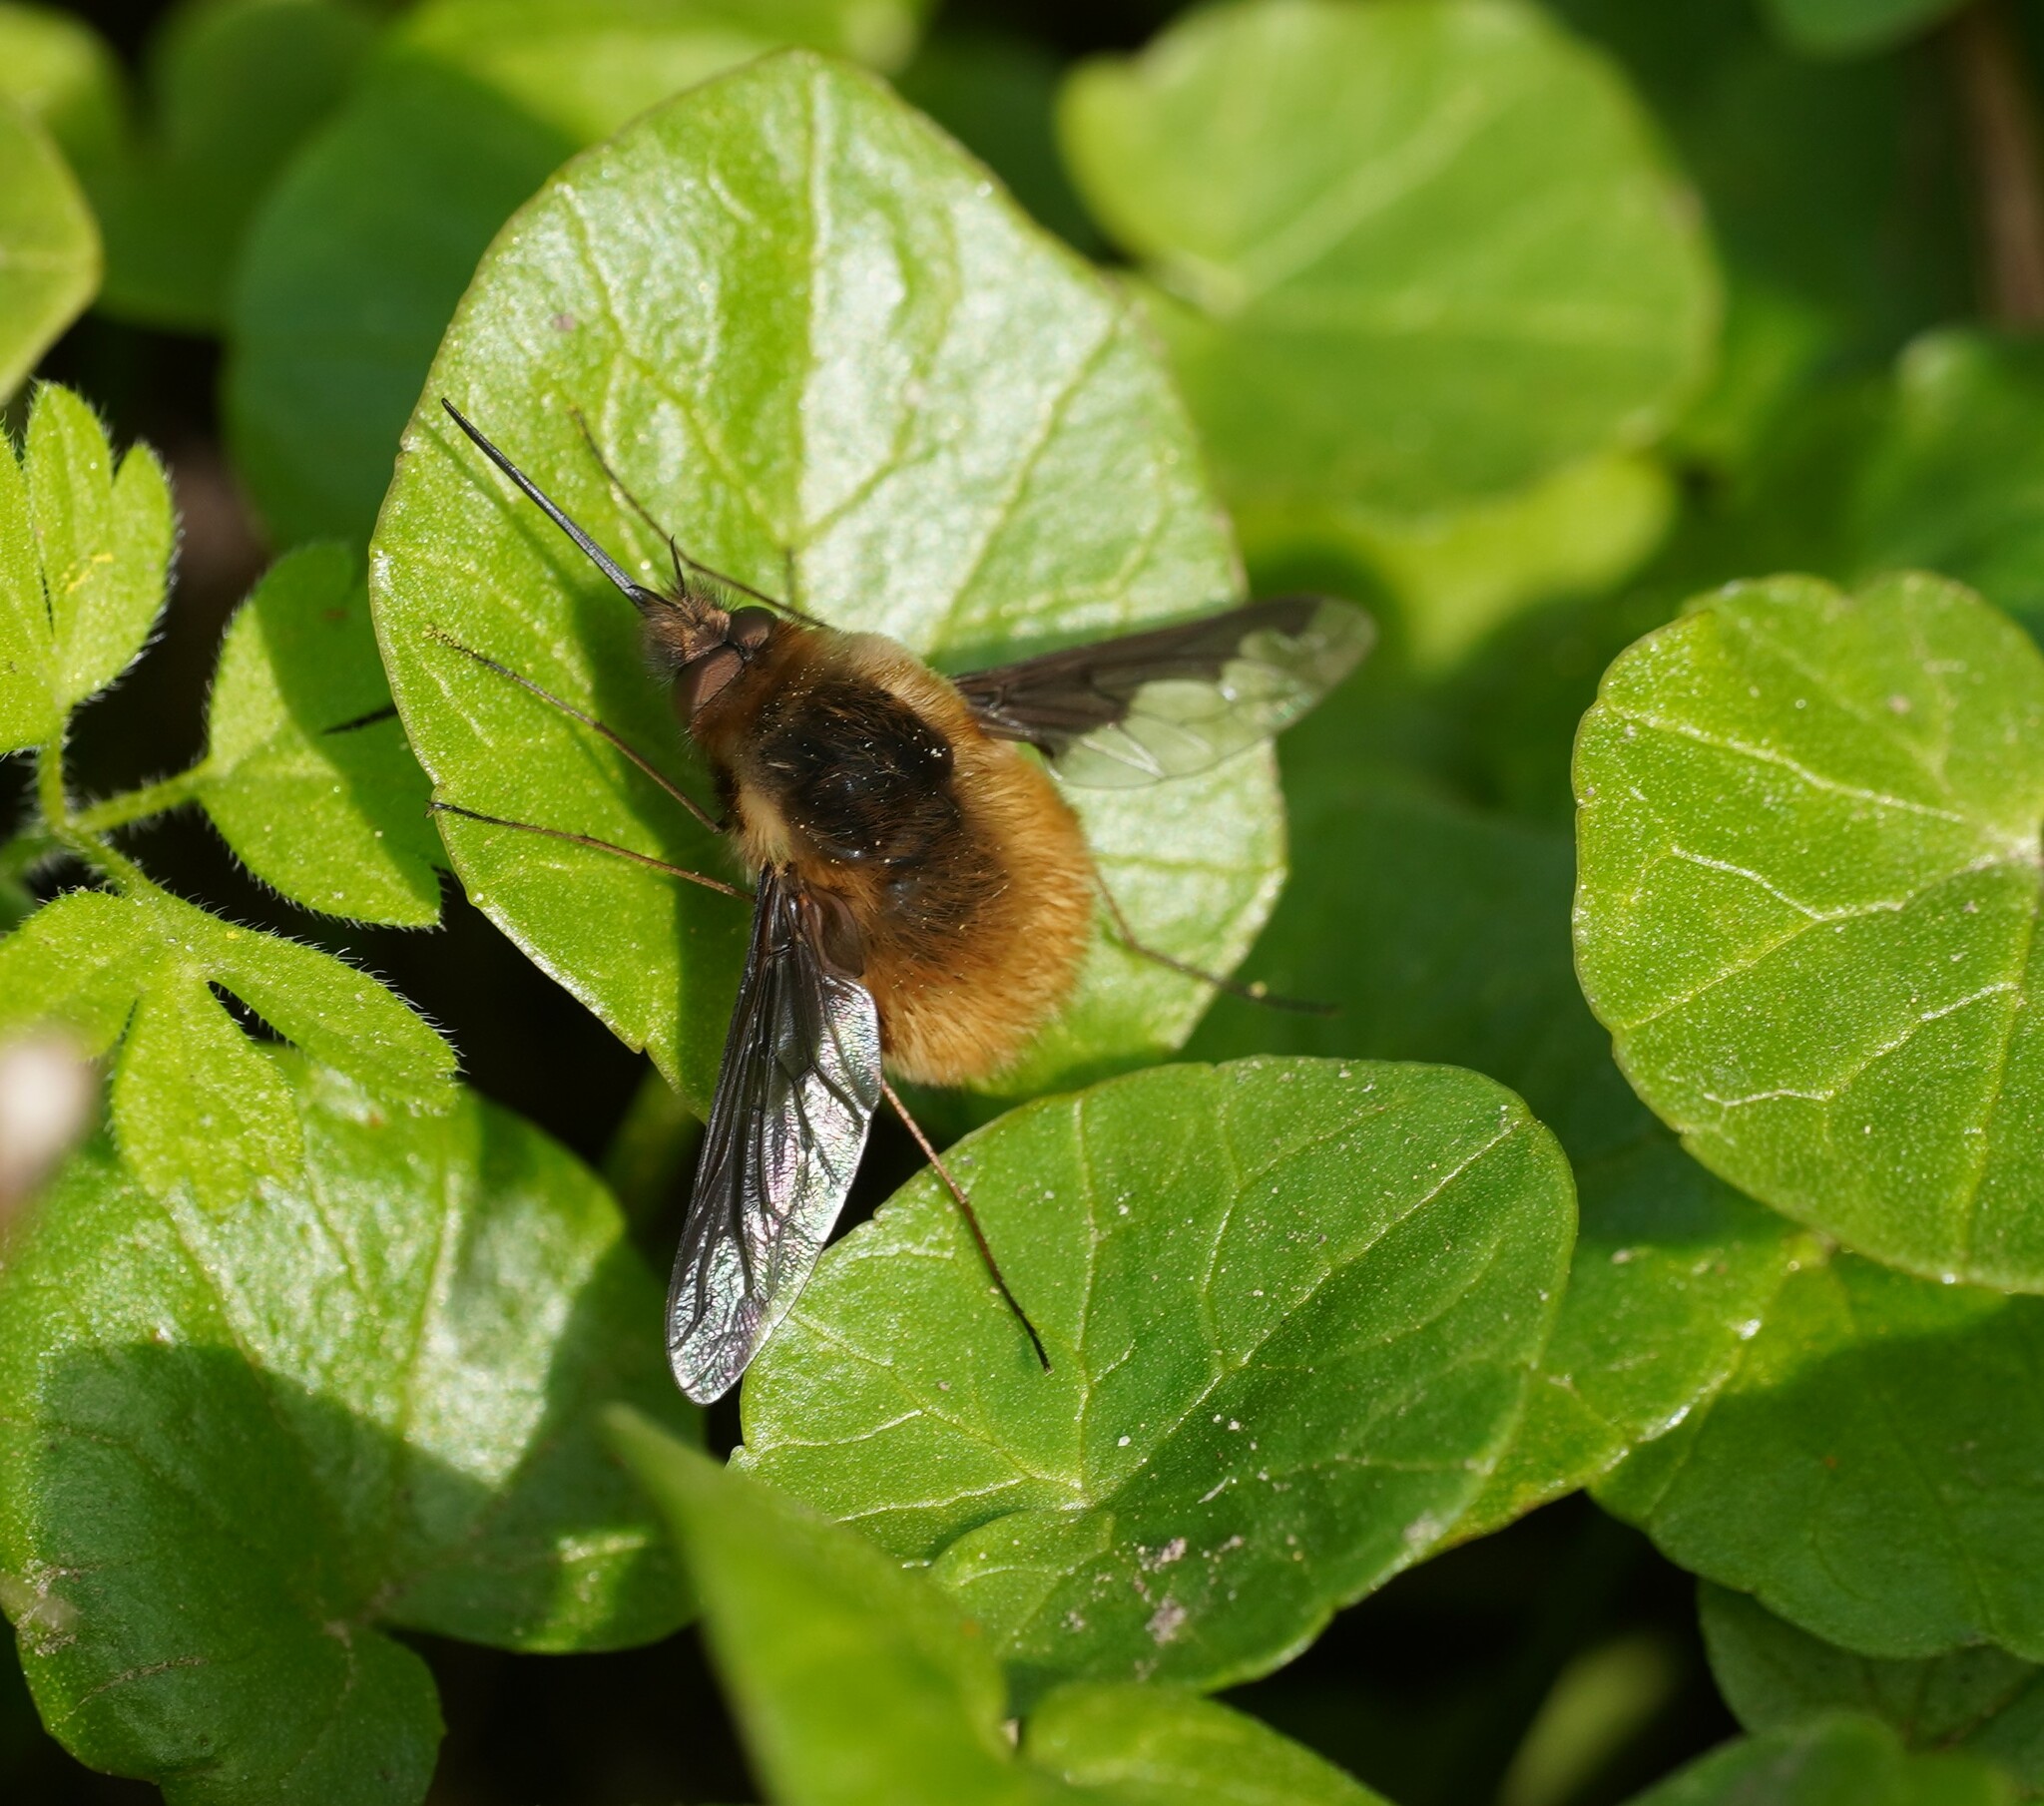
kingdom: Animalia
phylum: Arthropoda
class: Insecta
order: Diptera
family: Bombyliidae
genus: Bombylius
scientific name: Bombylius major
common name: Bee fly
